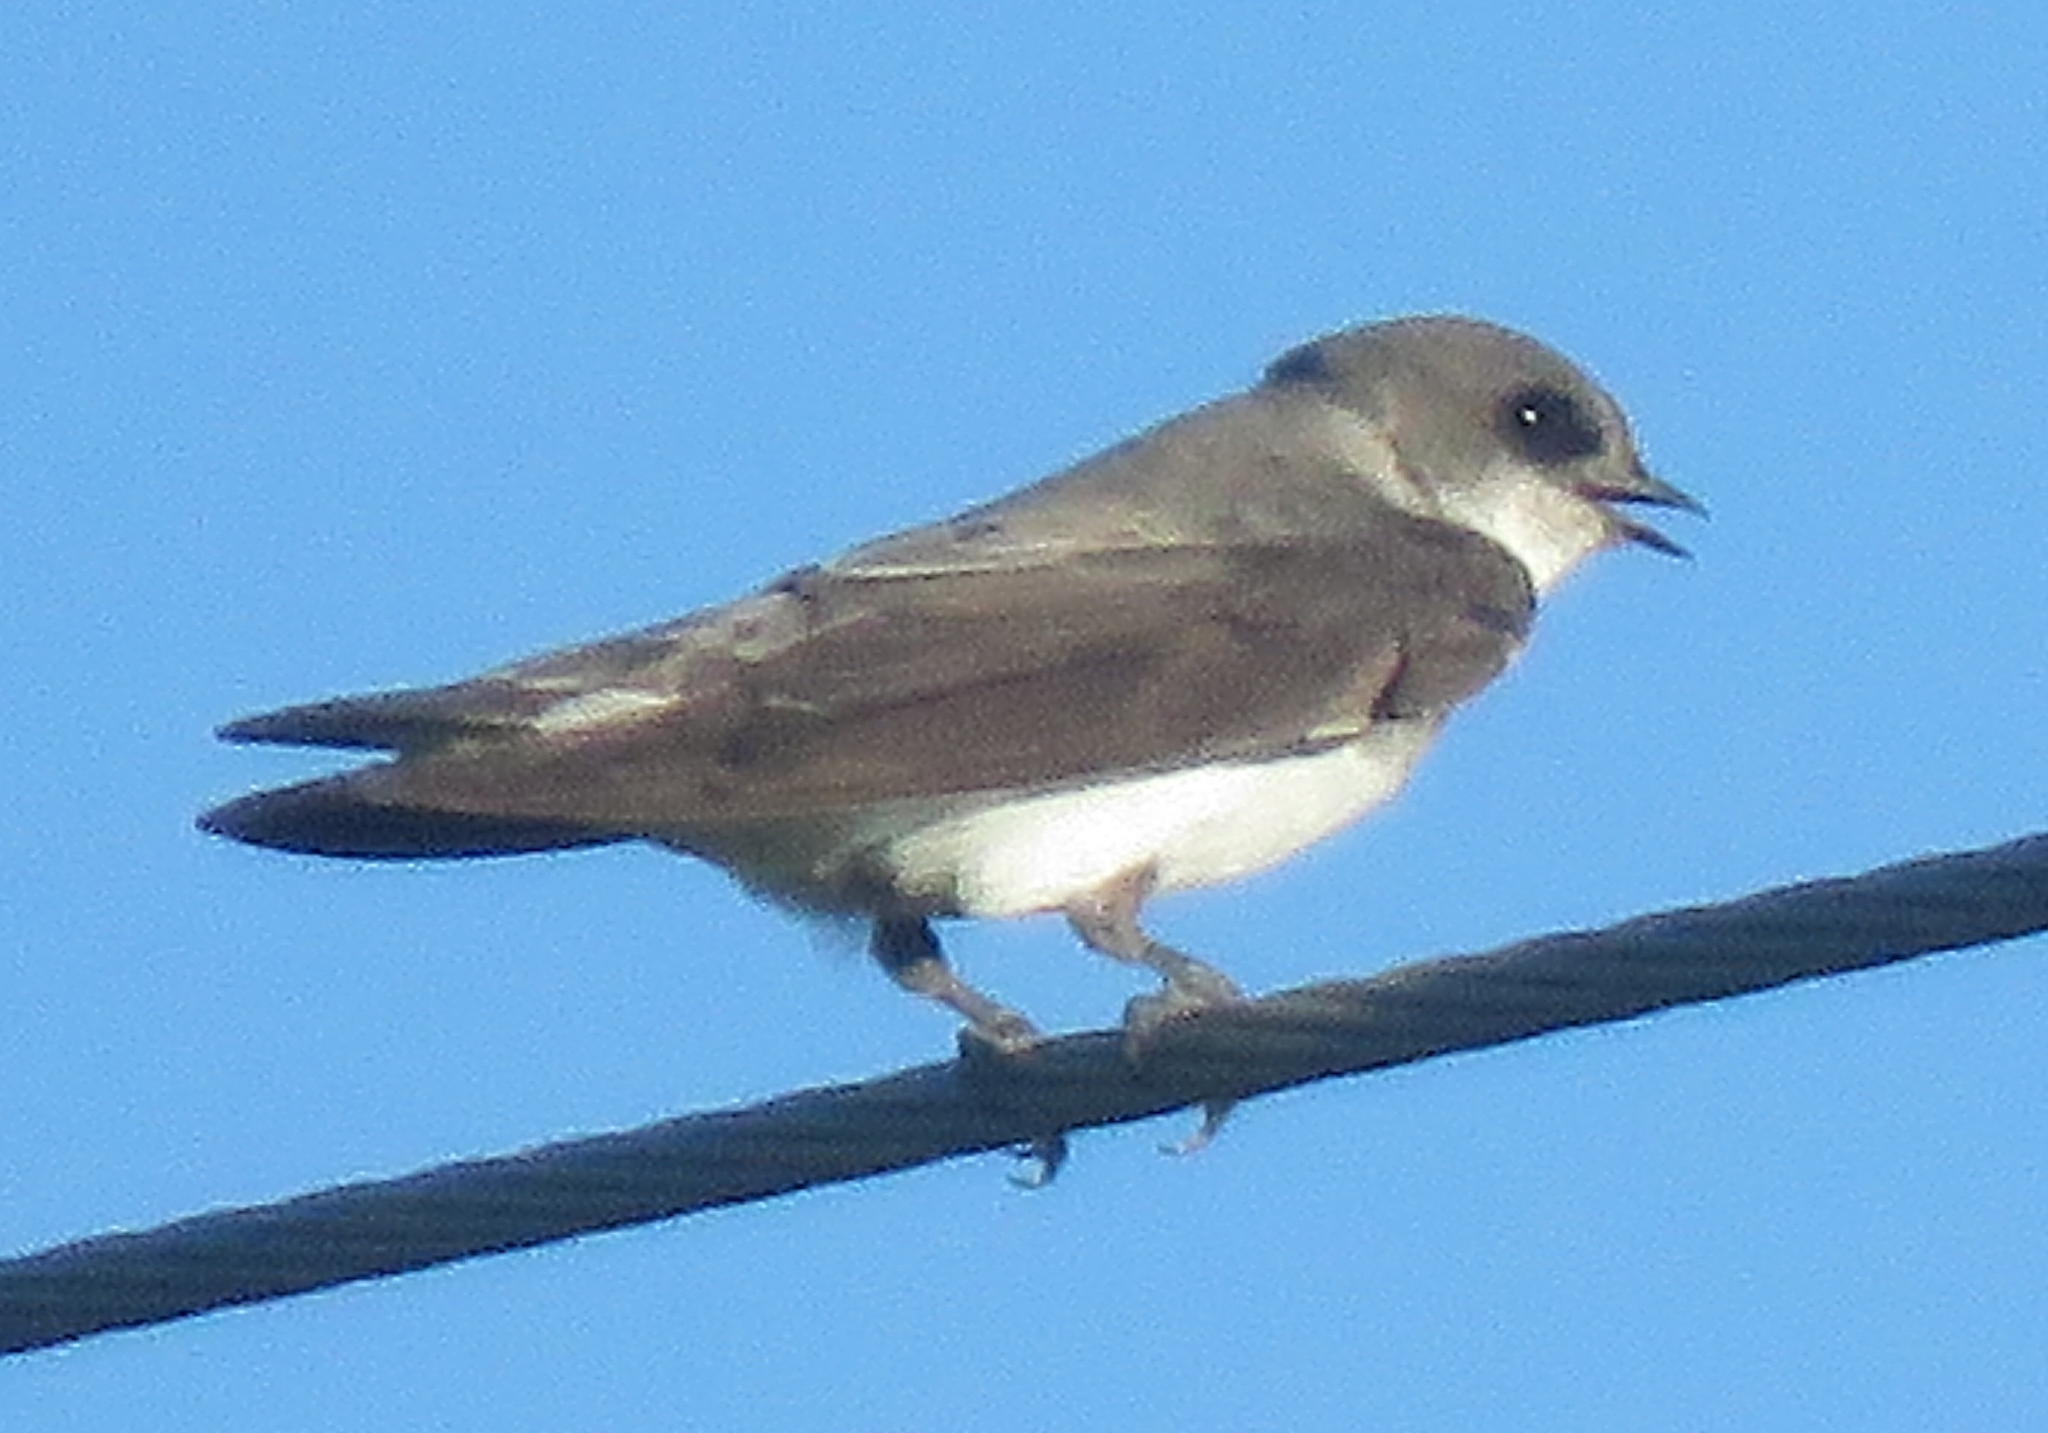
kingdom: Animalia
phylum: Chordata
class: Aves
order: Passeriformes
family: Hirundinidae
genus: Riparia
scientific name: Riparia riparia
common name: Sand martin
